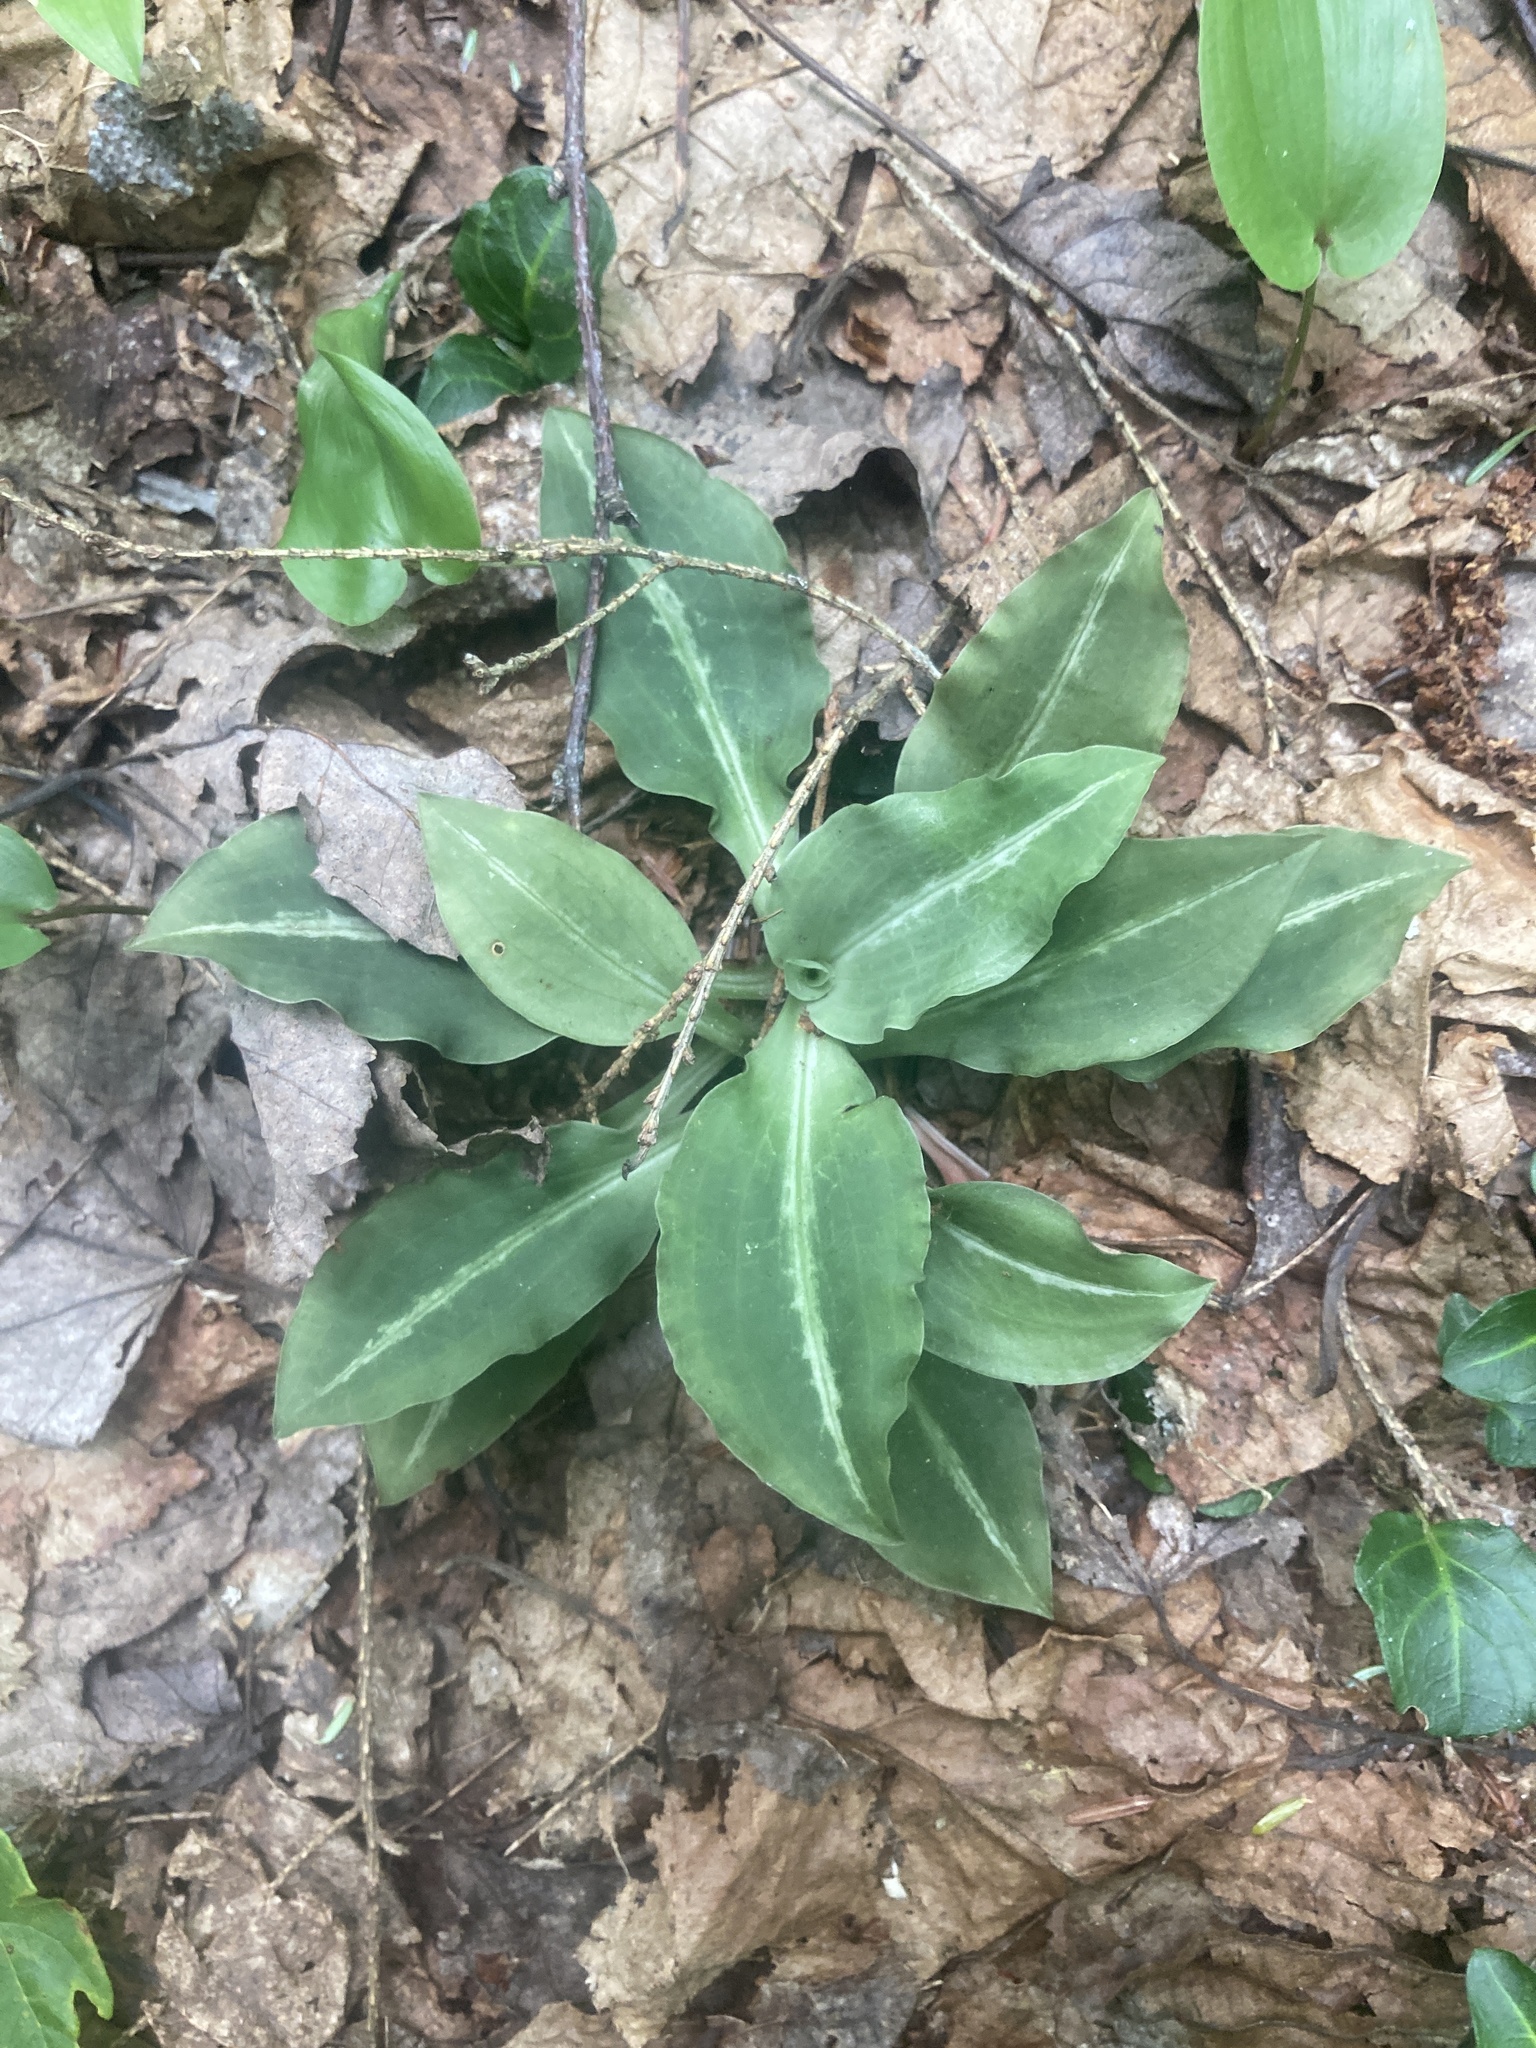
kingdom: Plantae
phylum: Tracheophyta
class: Liliopsida
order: Asparagales
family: Orchidaceae
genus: Goodyera
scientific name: Goodyera oblongifolia
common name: Giant rattlesnake-plantain
